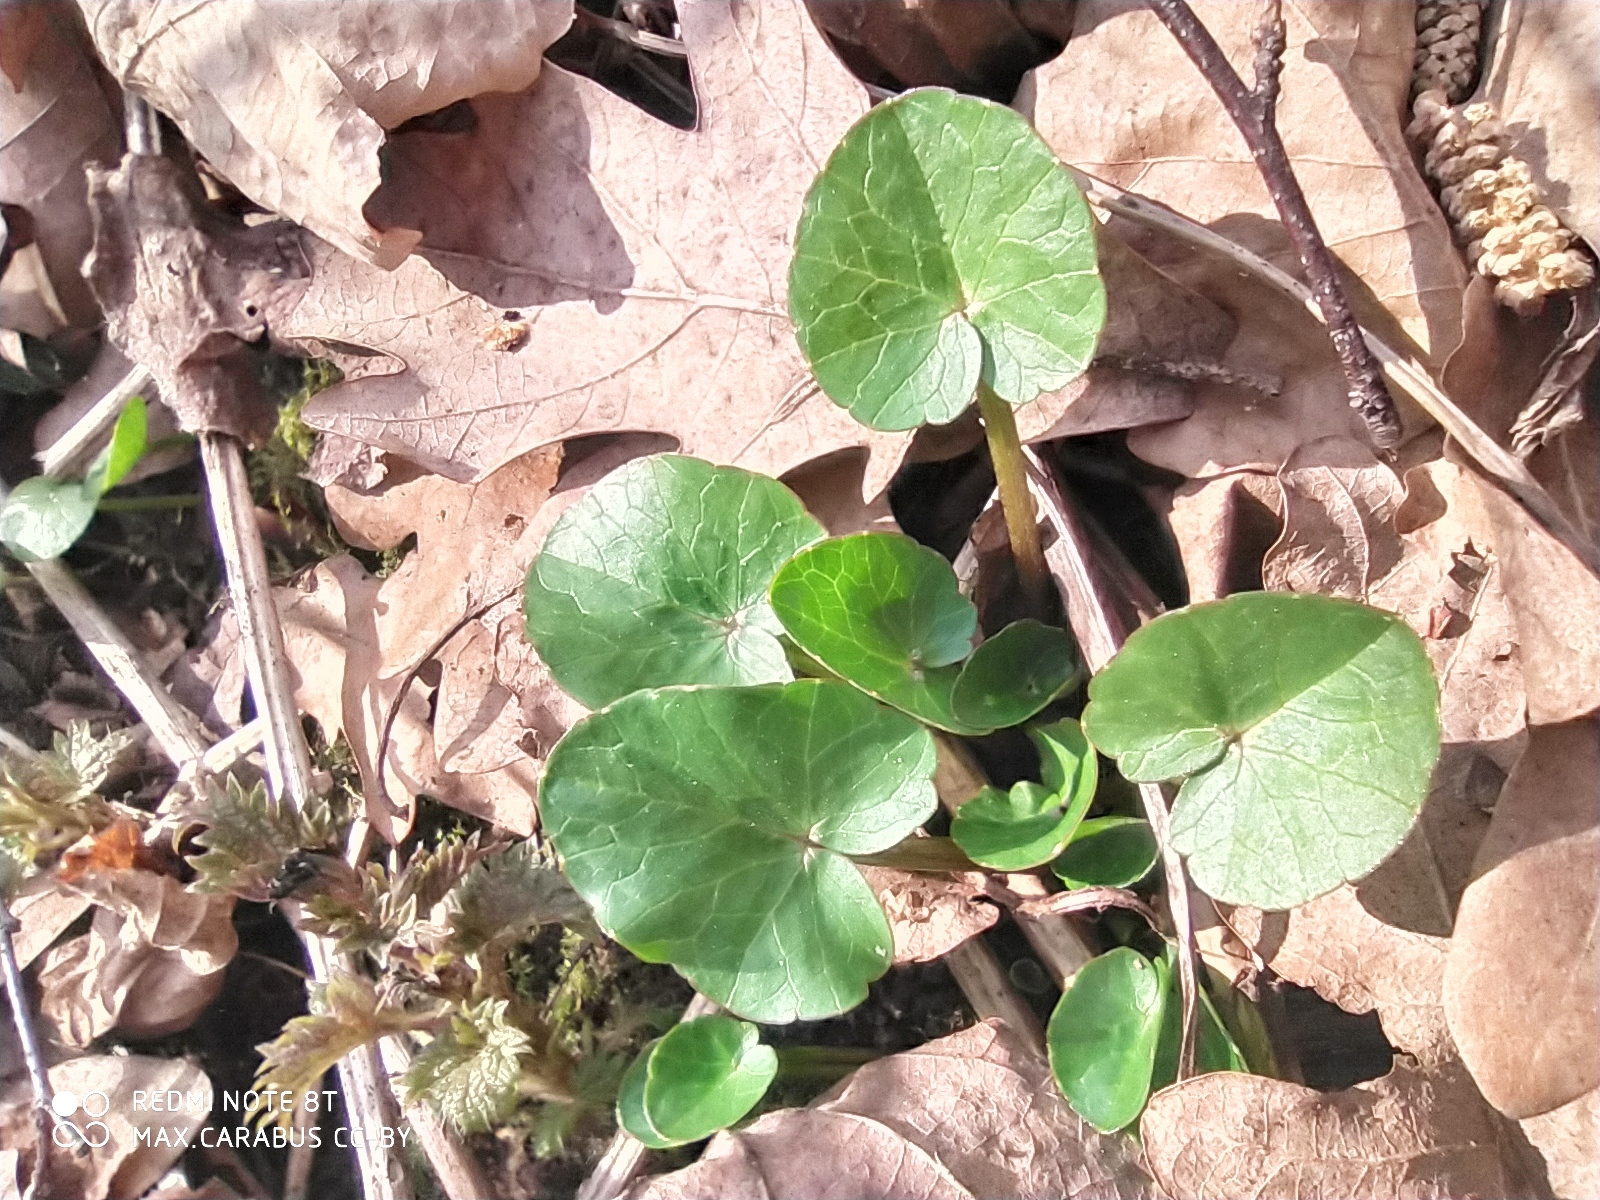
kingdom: Plantae
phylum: Tracheophyta
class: Magnoliopsida
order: Ranunculales
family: Ranunculaceae
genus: Ficaria
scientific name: Ficaria verna
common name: Lesser celandine
